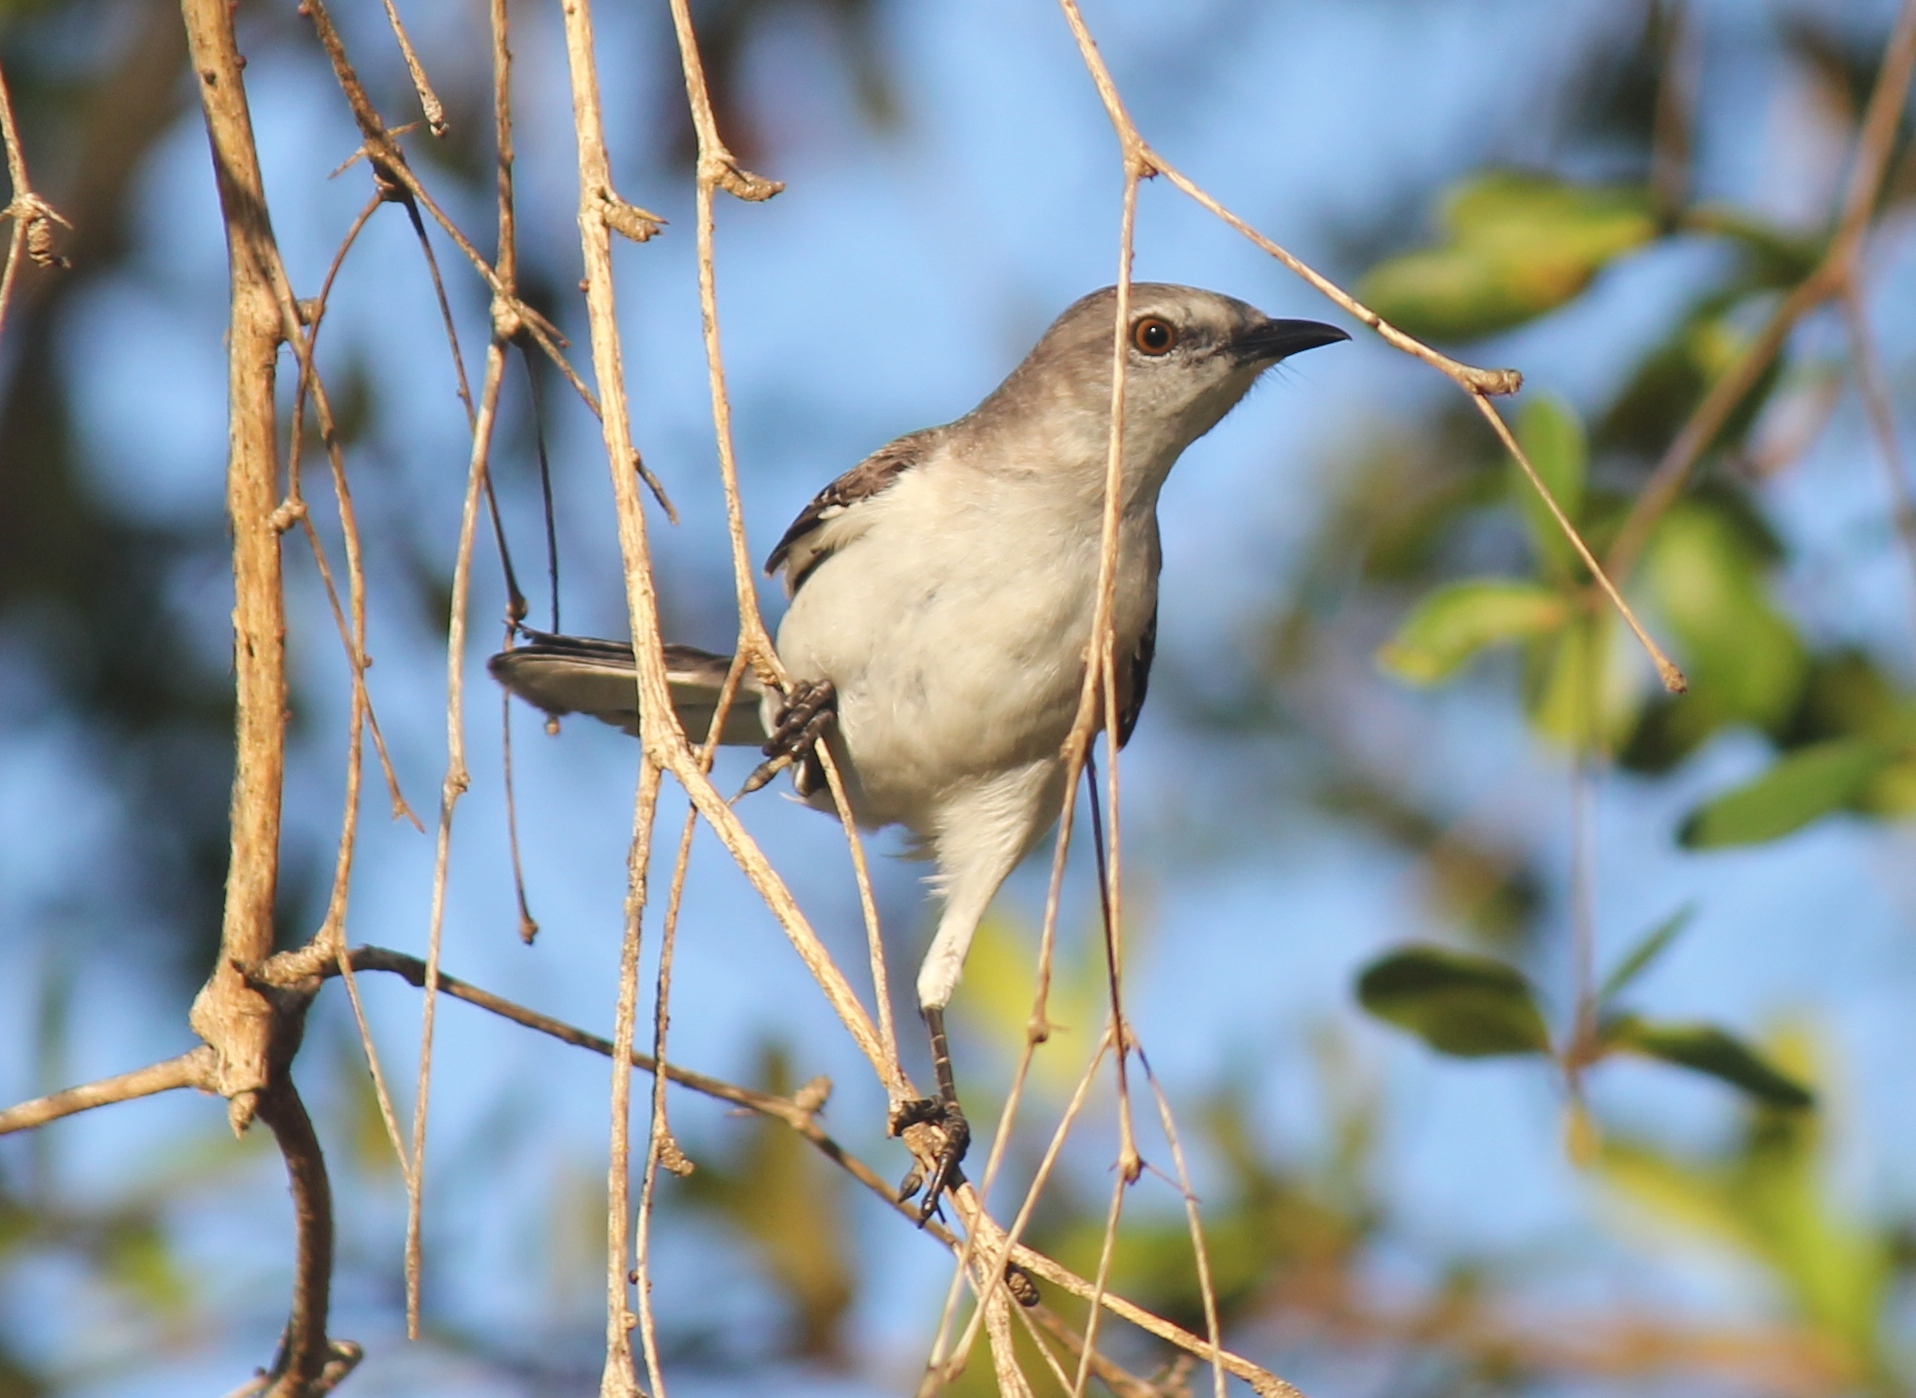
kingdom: Animalia
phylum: Chordata
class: Aves
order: Passeriformes
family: Mimidae
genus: Mimus
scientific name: Mimus polyglottos
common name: Northern mockingbird
